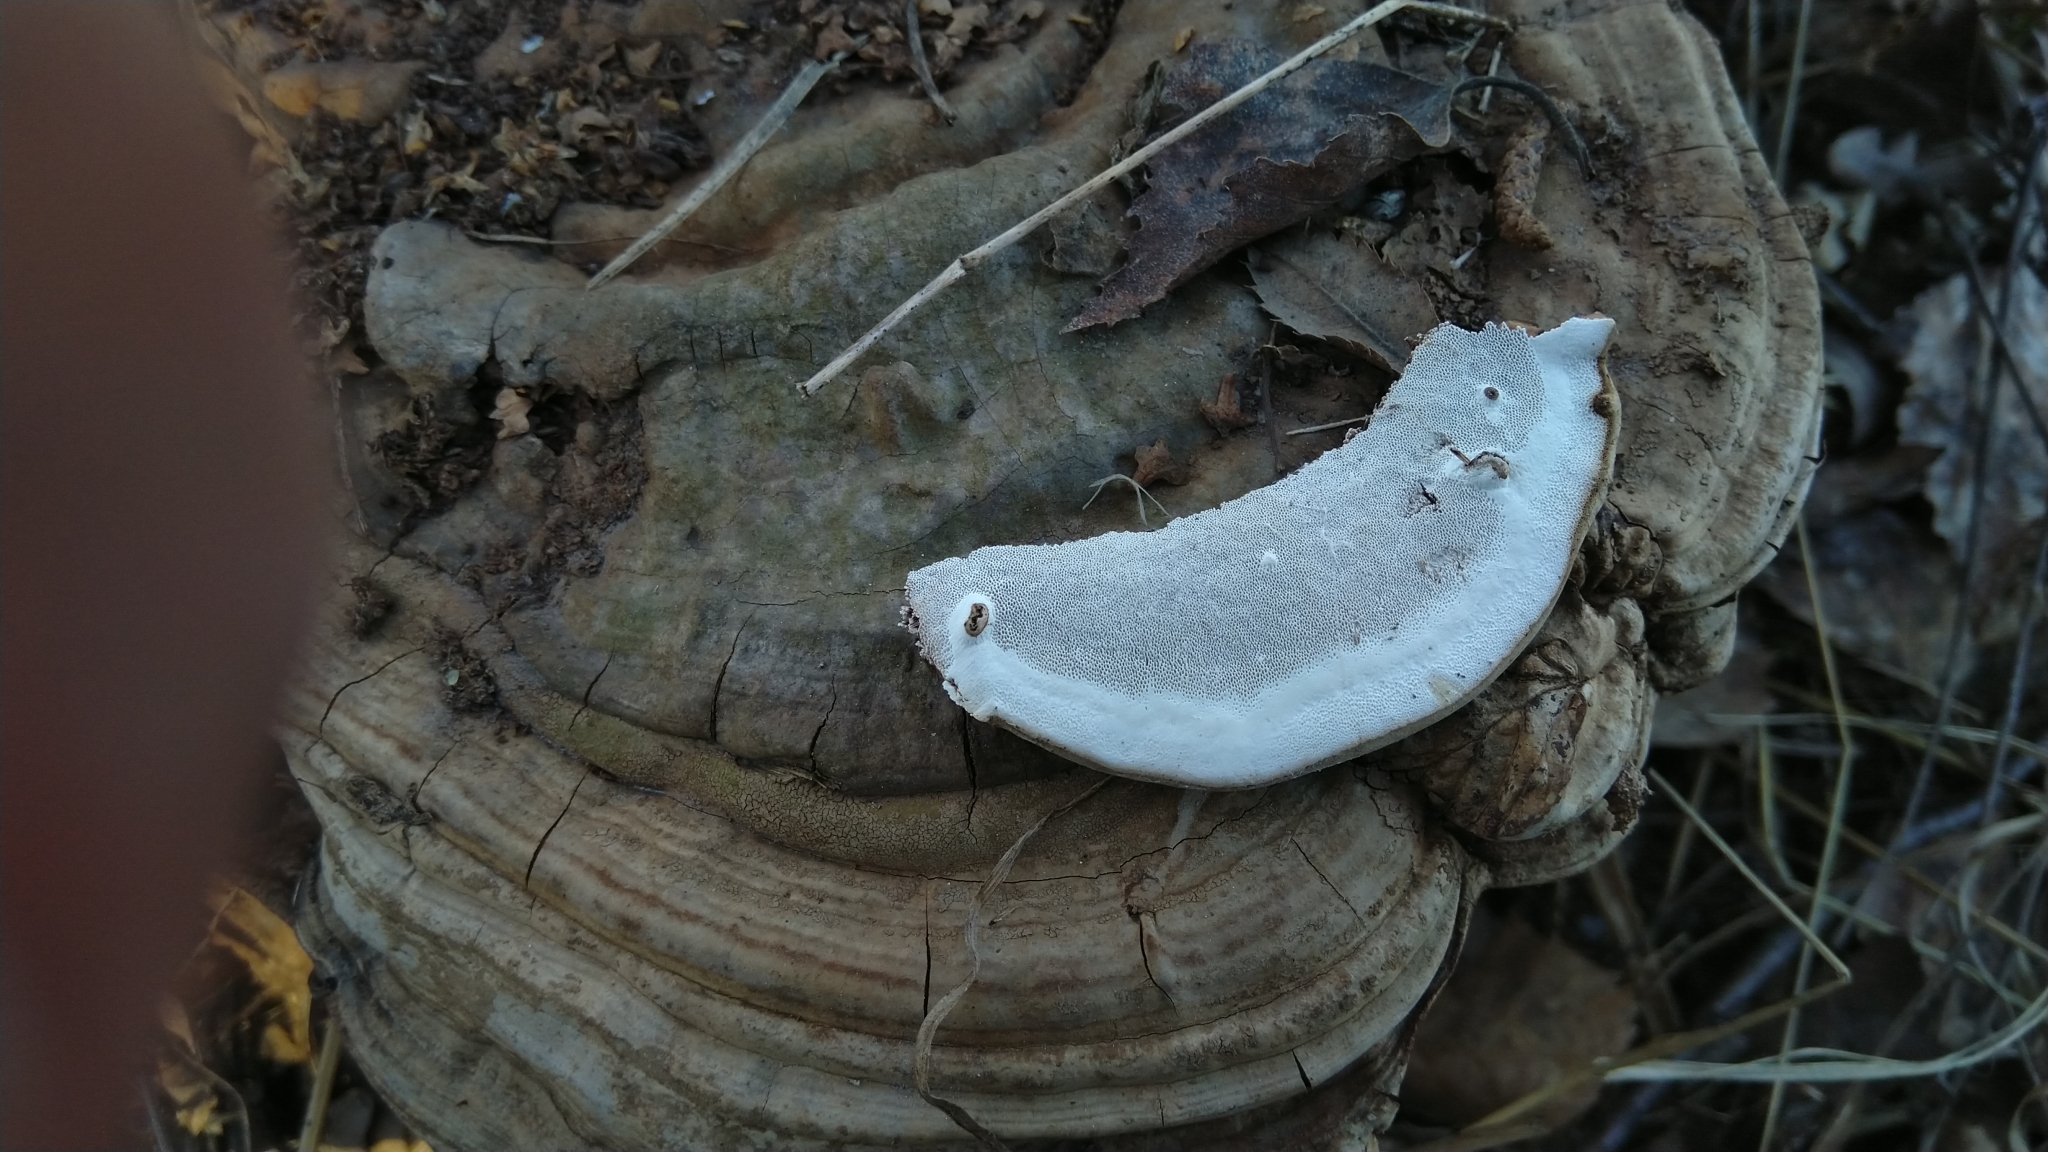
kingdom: Fungi
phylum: Basidiomycota
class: Agaricomycetes
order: Polyporales
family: Polyporaceae
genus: Ganoderma
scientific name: Ganoderma applanatum
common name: Artist's bracket
